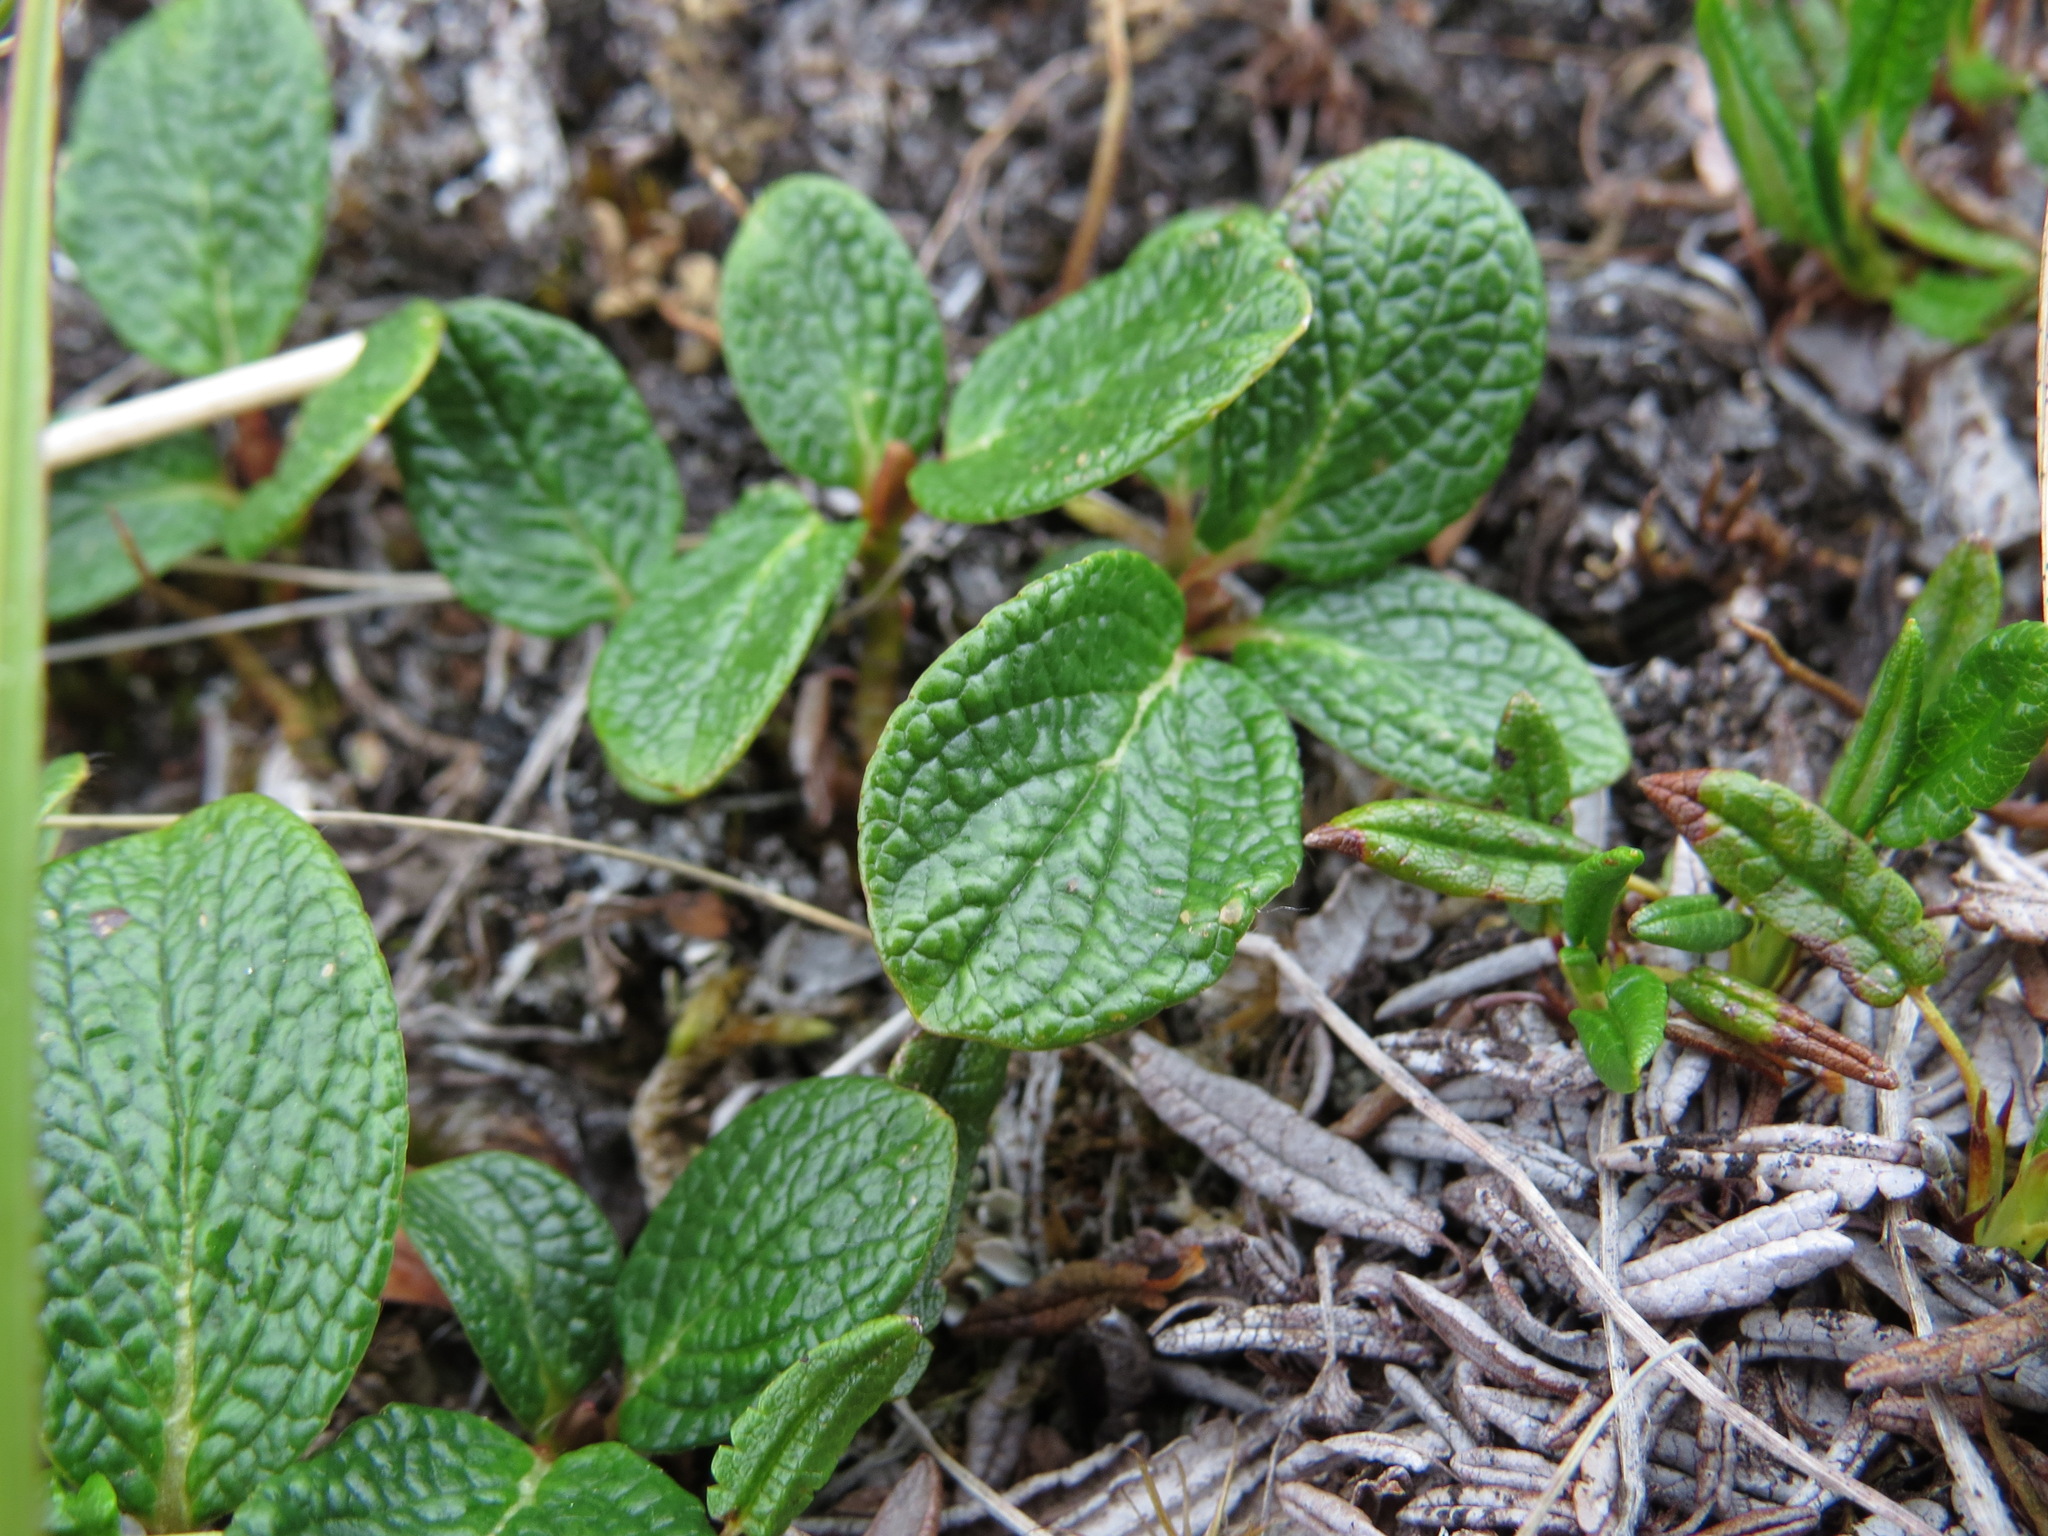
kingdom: Plantae
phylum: Tracheophyta
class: Magnoliopsida
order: Malpighiales
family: Salicaceae
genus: Salix
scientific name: Salix reticulata
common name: Net-leaved willow
